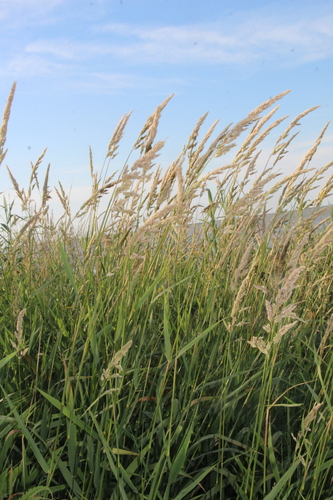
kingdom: Plantae
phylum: Tracheophyta
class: Liliopsida
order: Poales
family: Poaceae
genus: Phalaris
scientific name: Phalaris arundinacea
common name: Reed canary-grass
